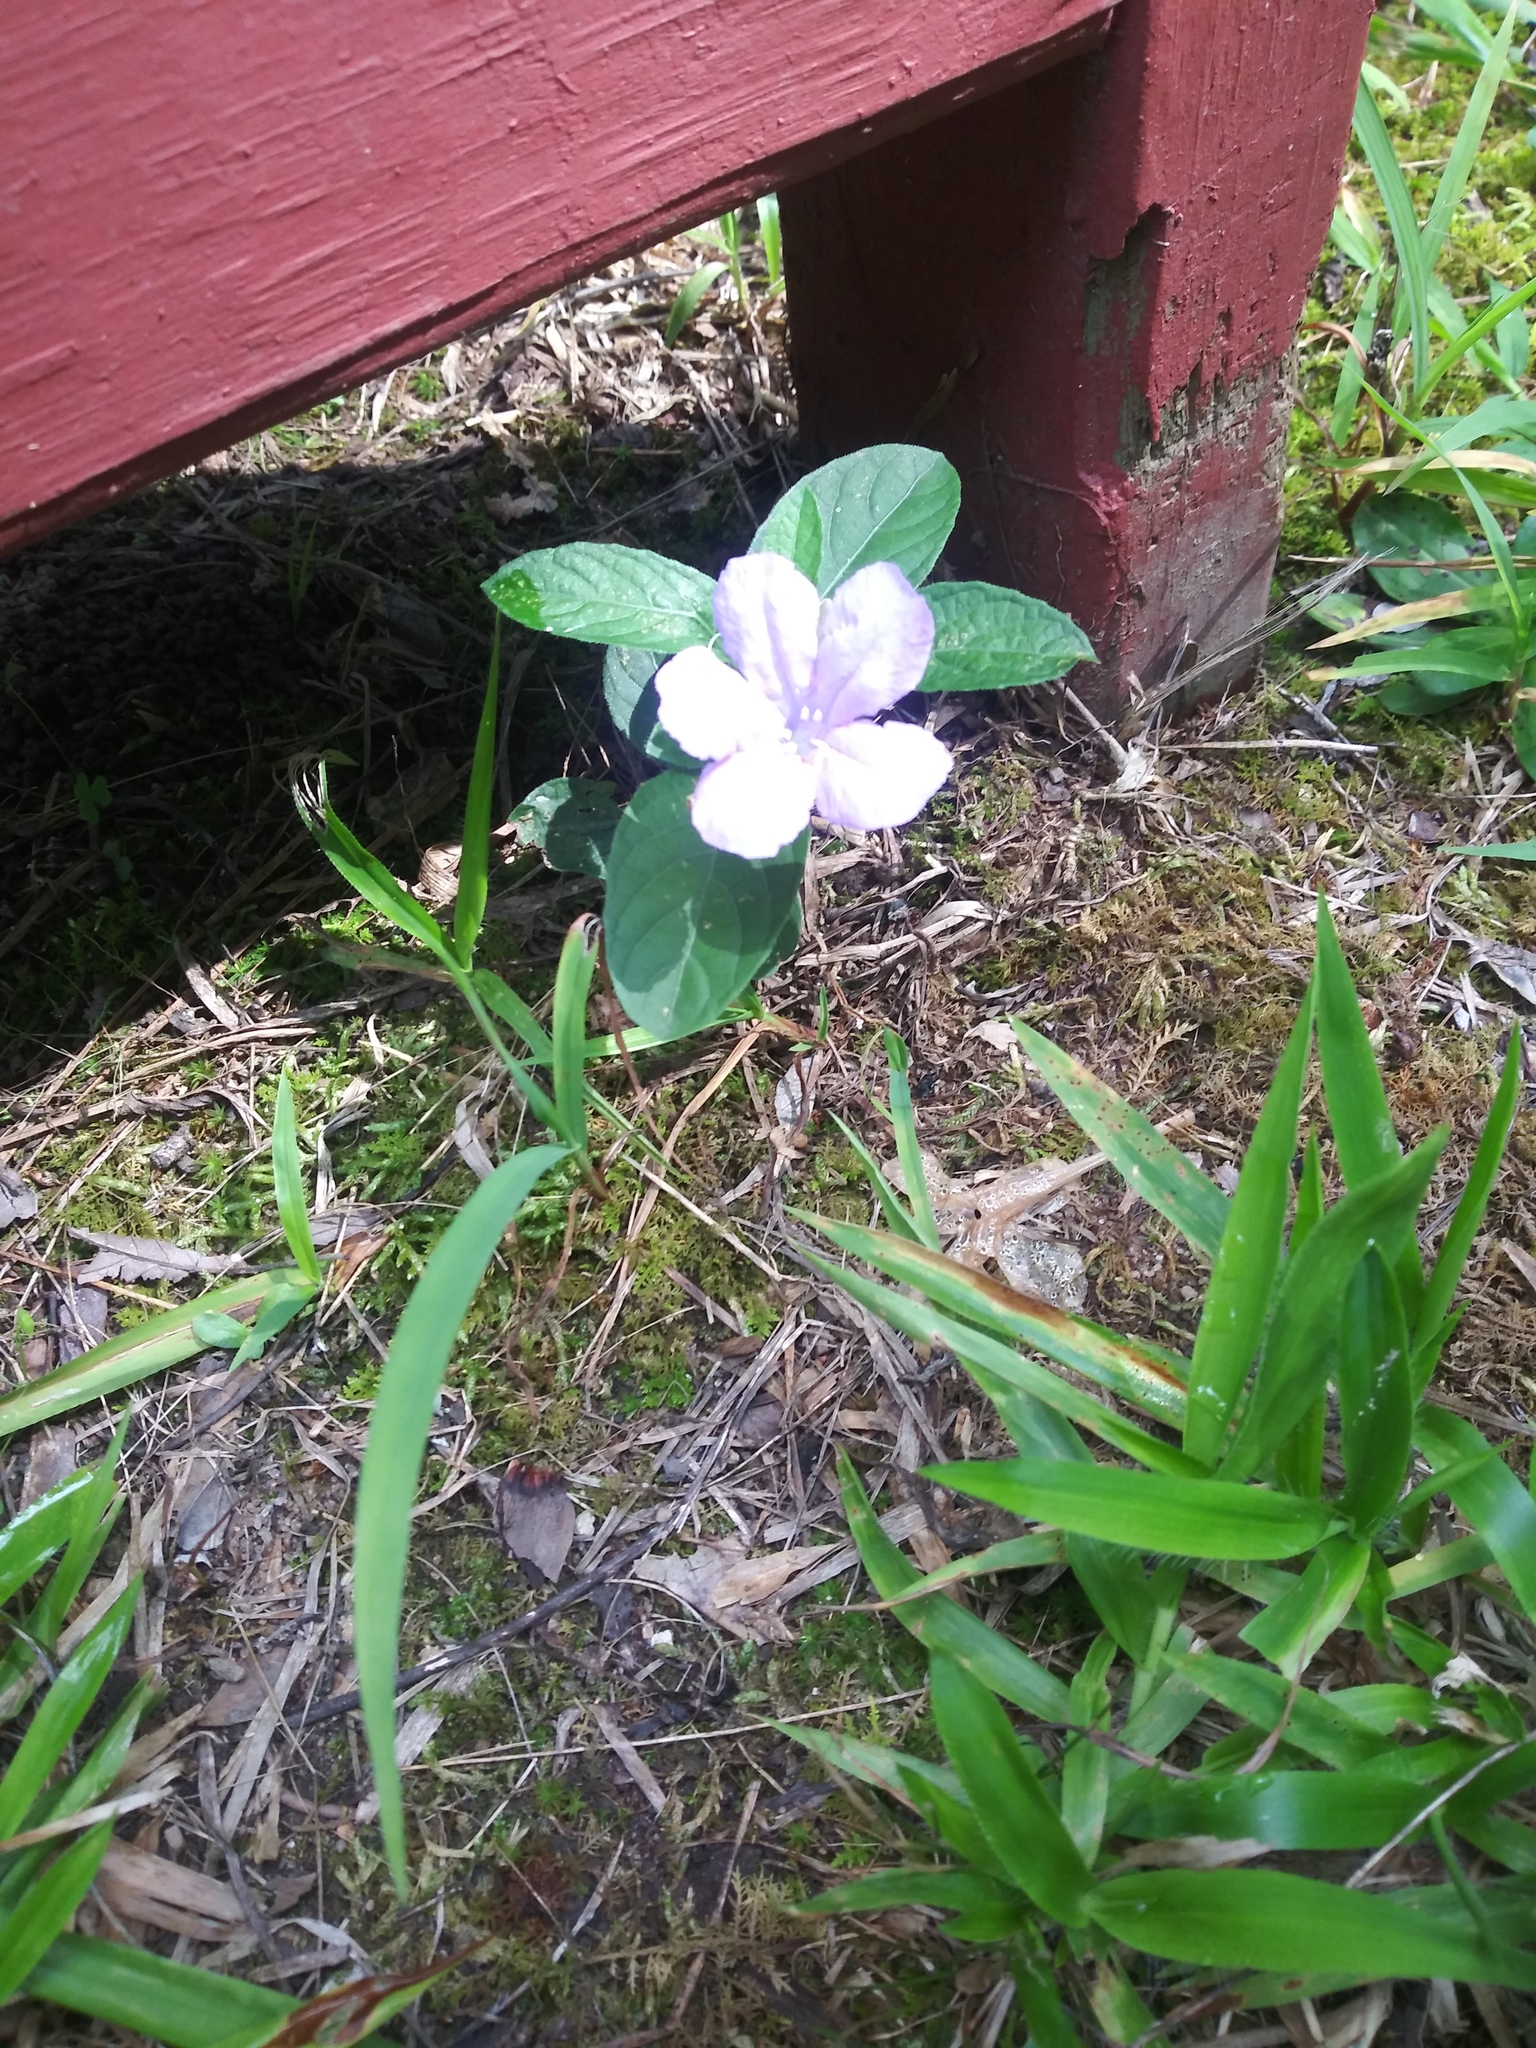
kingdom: Plantae
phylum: Tracheophyta
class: Magnoliopsida
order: Lamiales
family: Acanthaceae
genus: Ruellia
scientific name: Ruellia caroliniensis
